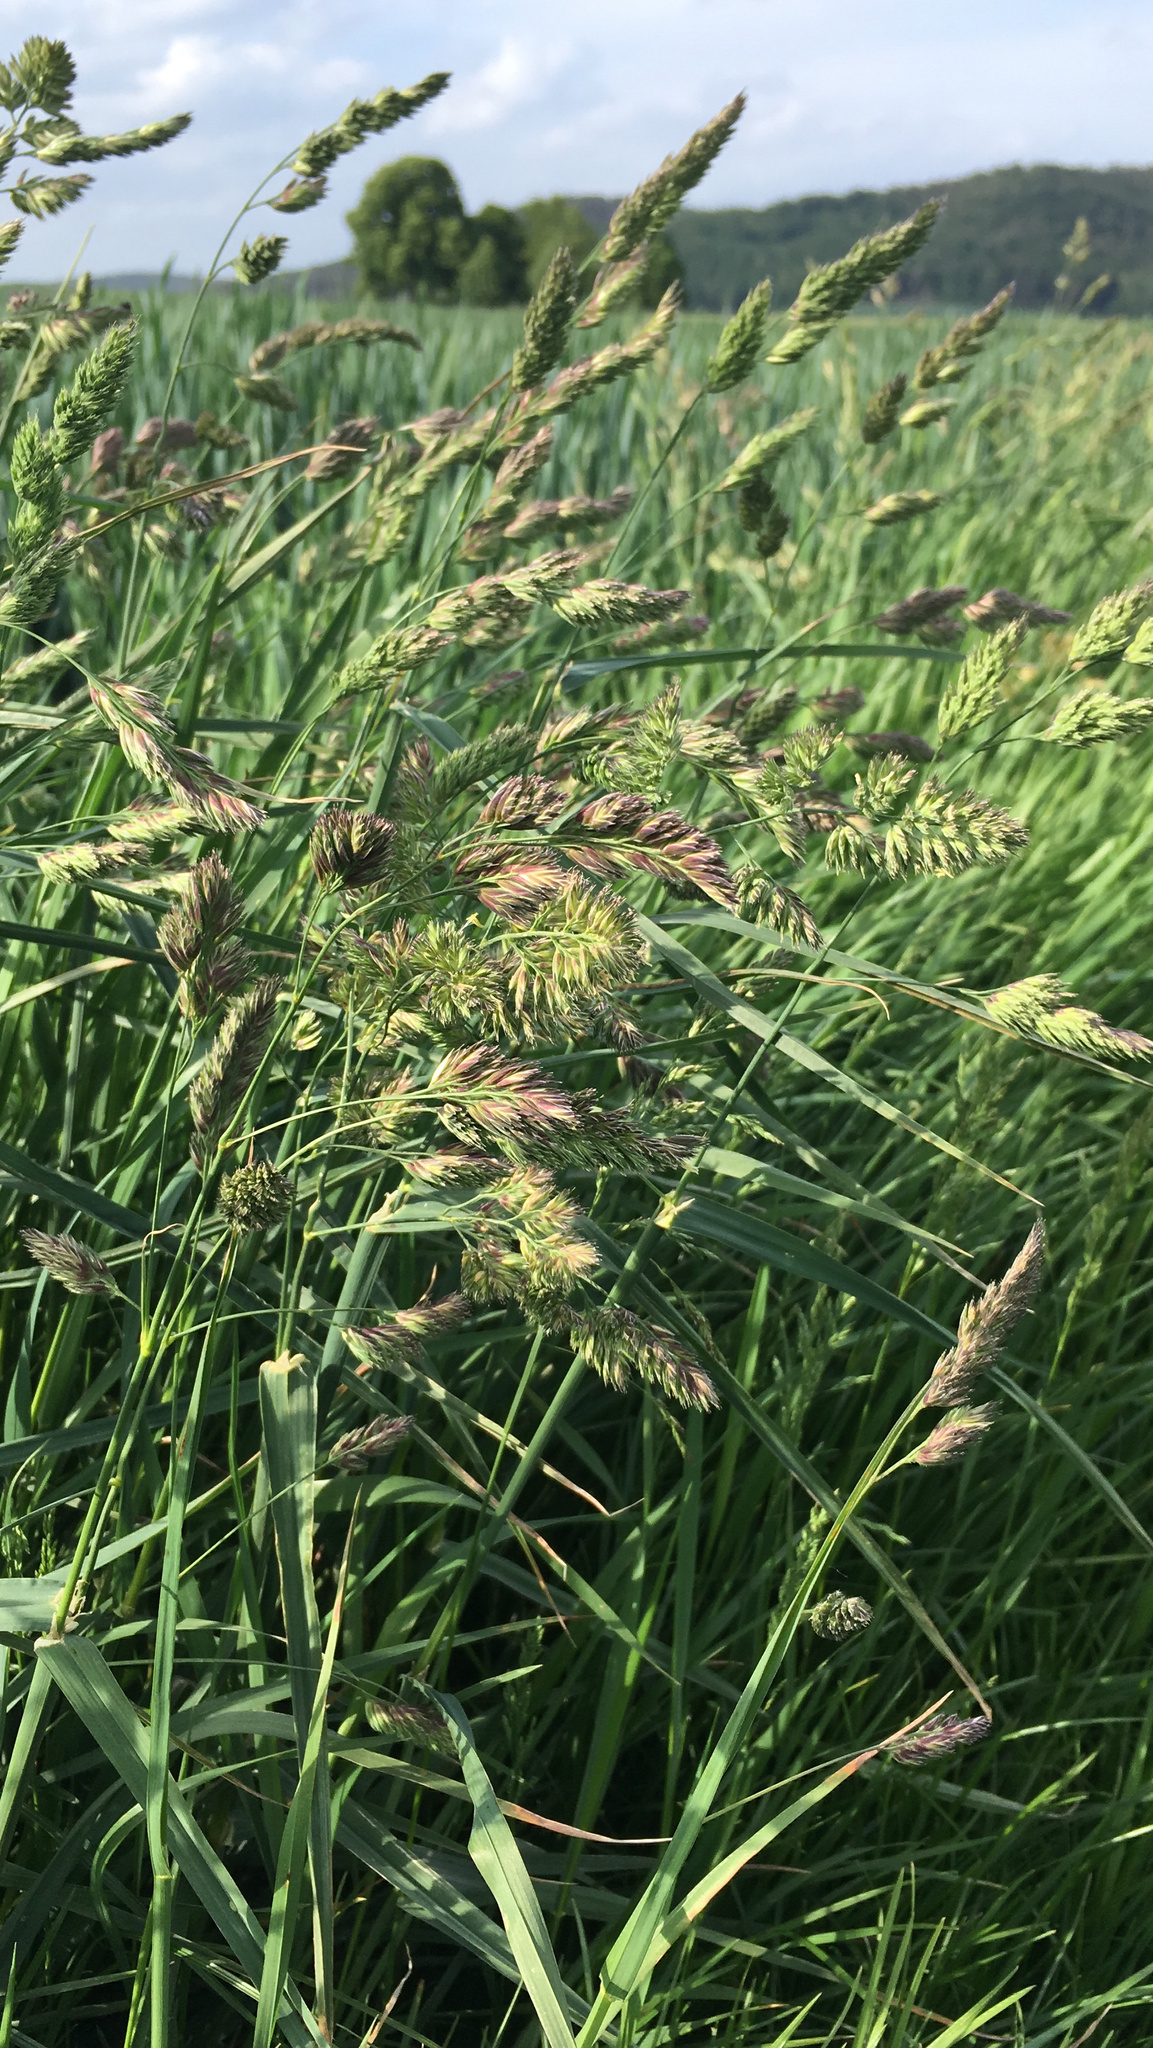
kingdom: Plantae
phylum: Tracheophyta
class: Liliopsida
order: Poales
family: Poaceae
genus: Dactylis
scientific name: Dactylis glomerata
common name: Orchardgrass
